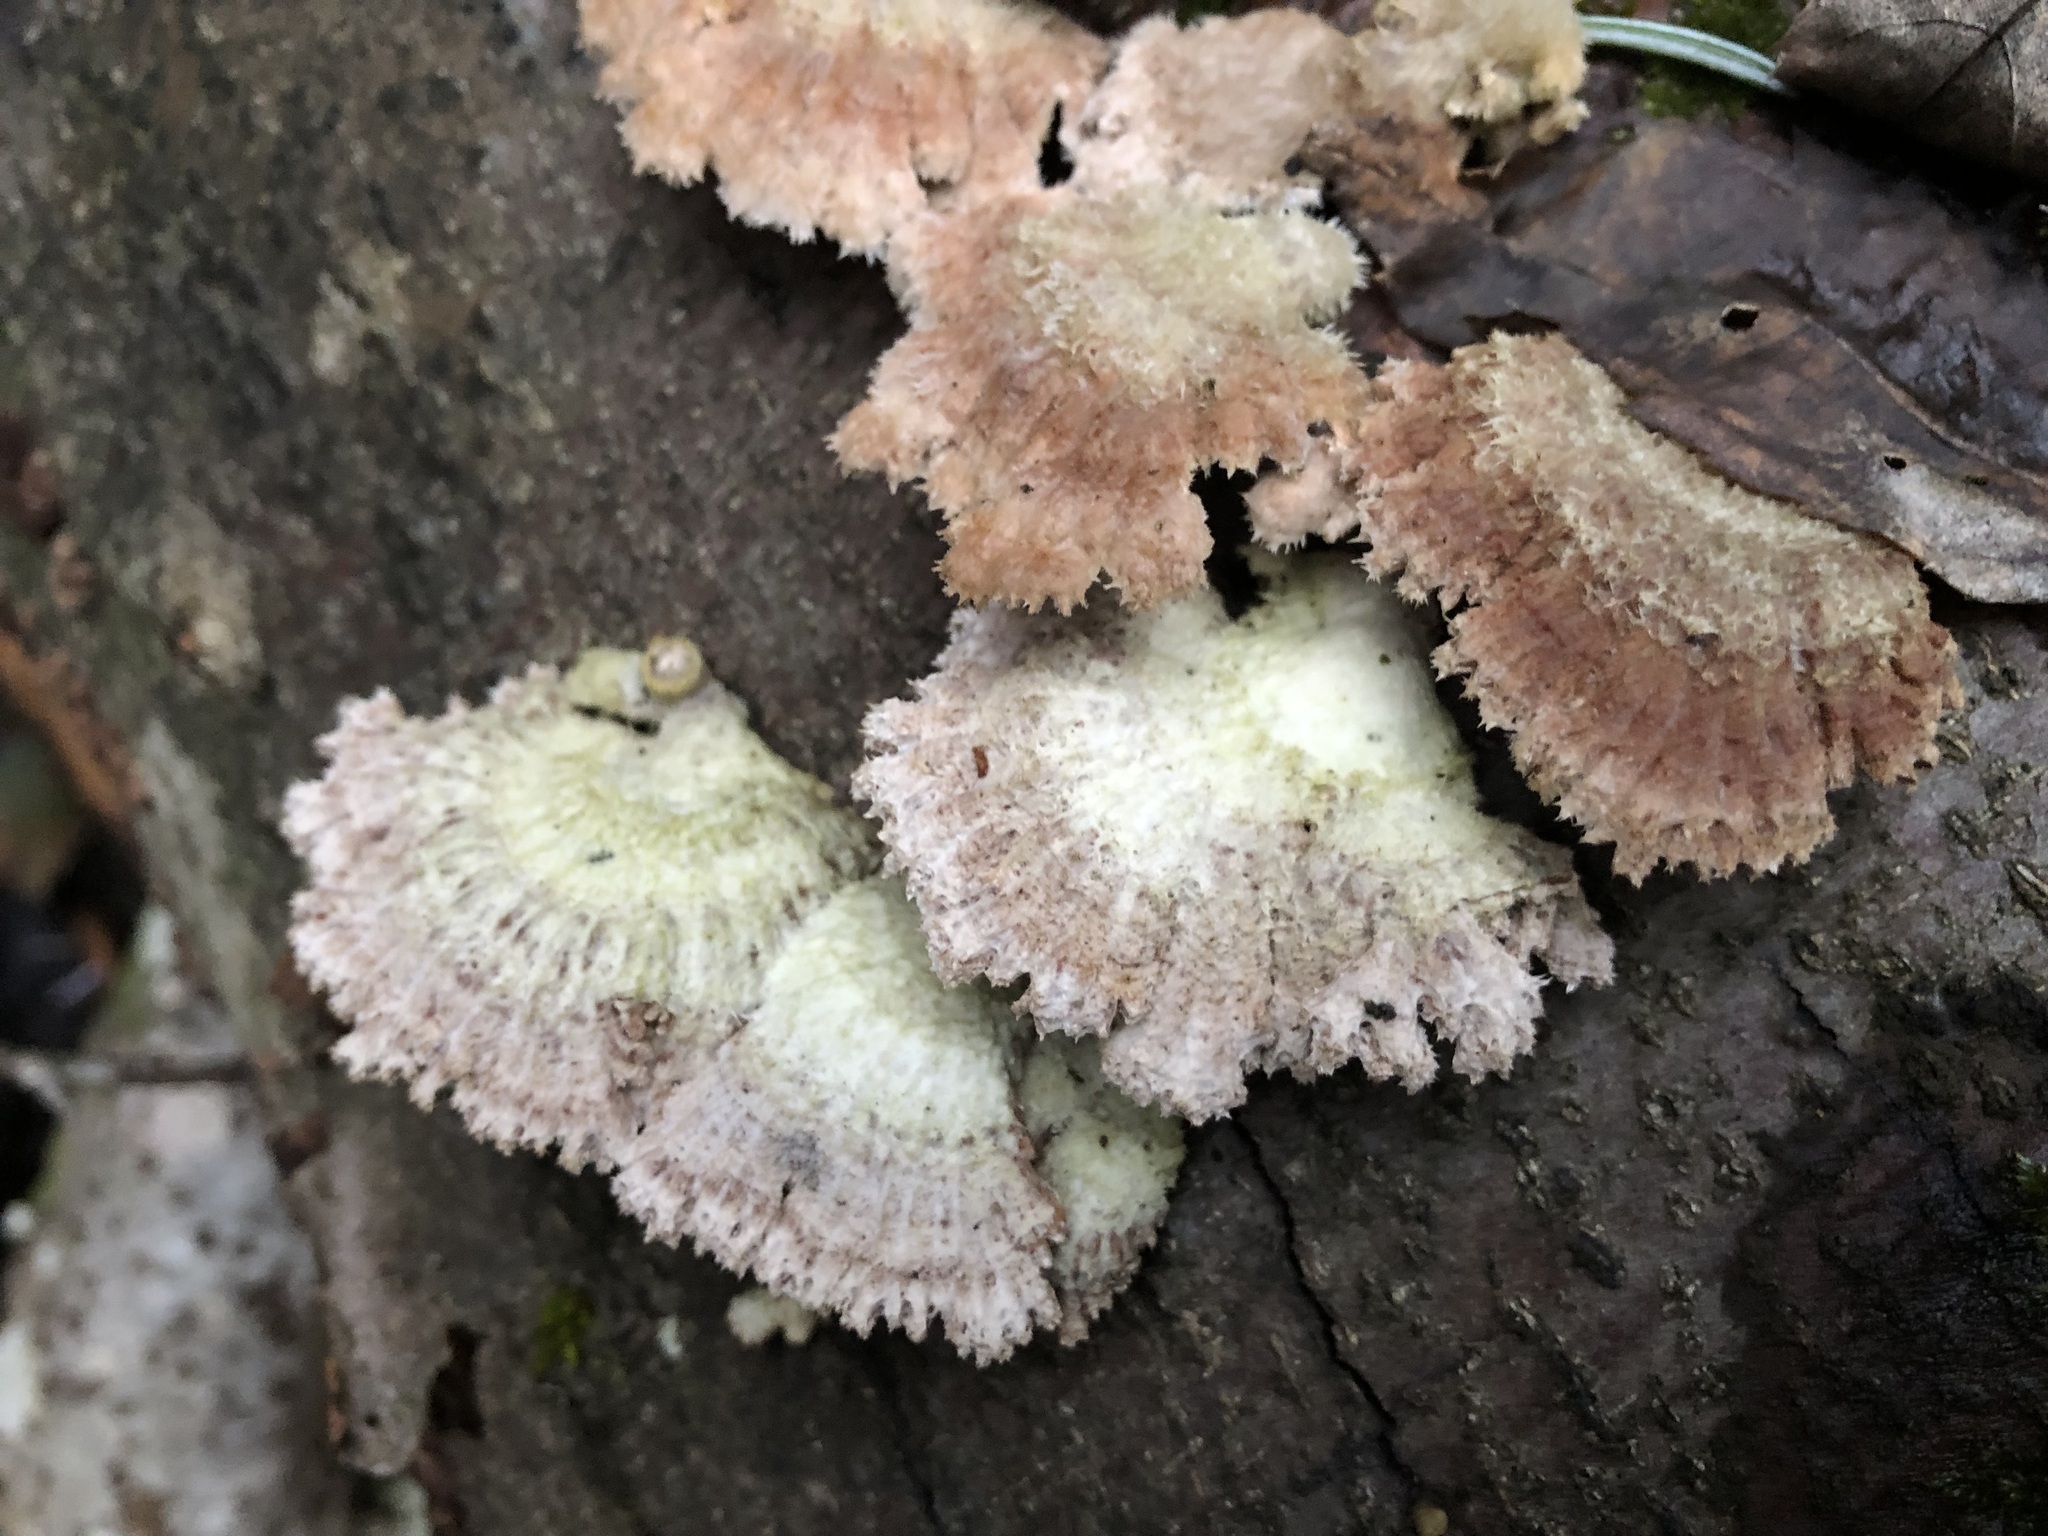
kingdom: Fungi
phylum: Basidiomycota
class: Agaricomycetes
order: Agaricales
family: Schizophyllaceae
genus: Schizophyllum
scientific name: Schizophyllum commune
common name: Common porecrust
